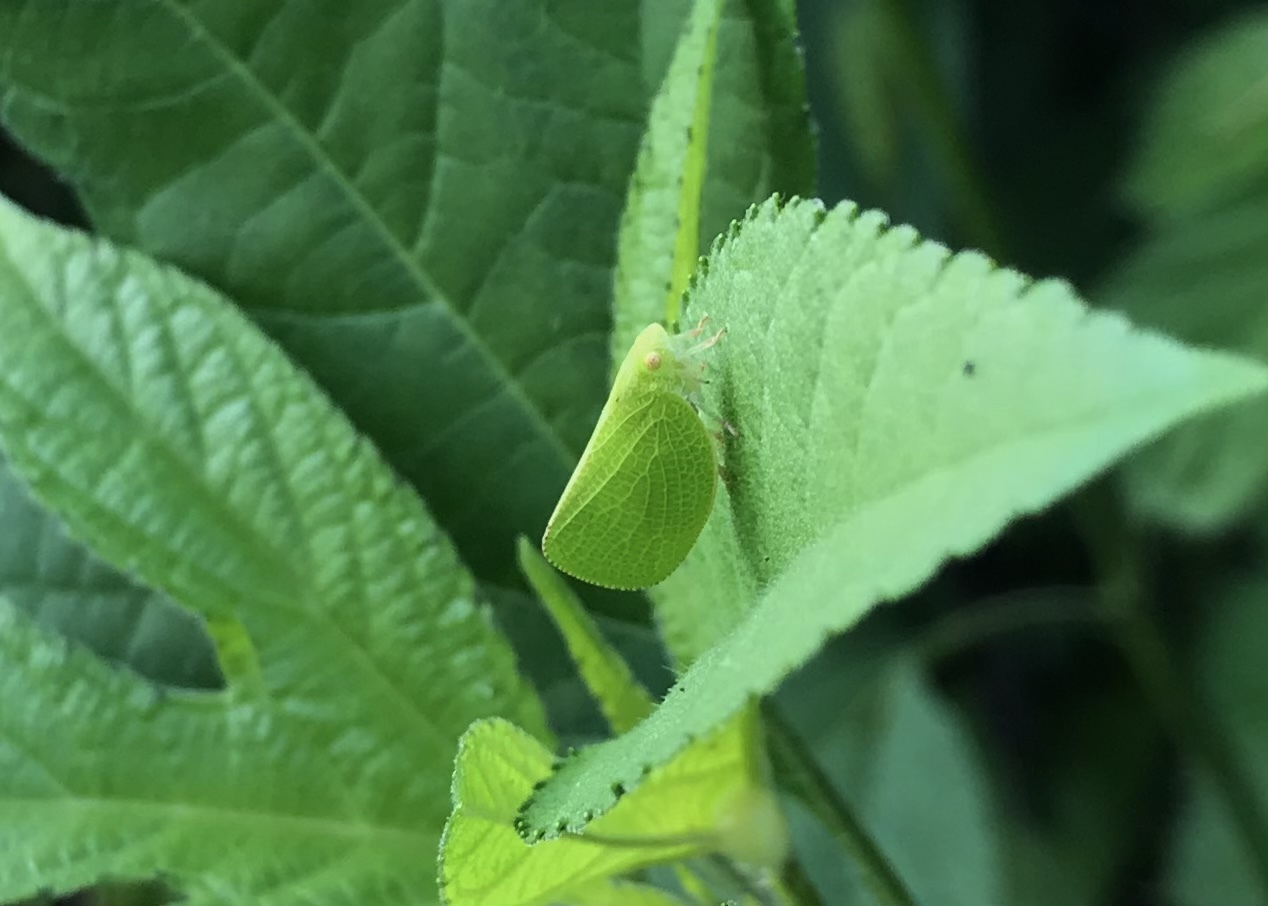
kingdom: Animalia
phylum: Arthropoda
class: Insecta
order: Hemiptera
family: Acanaloniidae
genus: Acanalonia
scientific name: Acanalonia conica
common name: Green cone-headed planthopper
